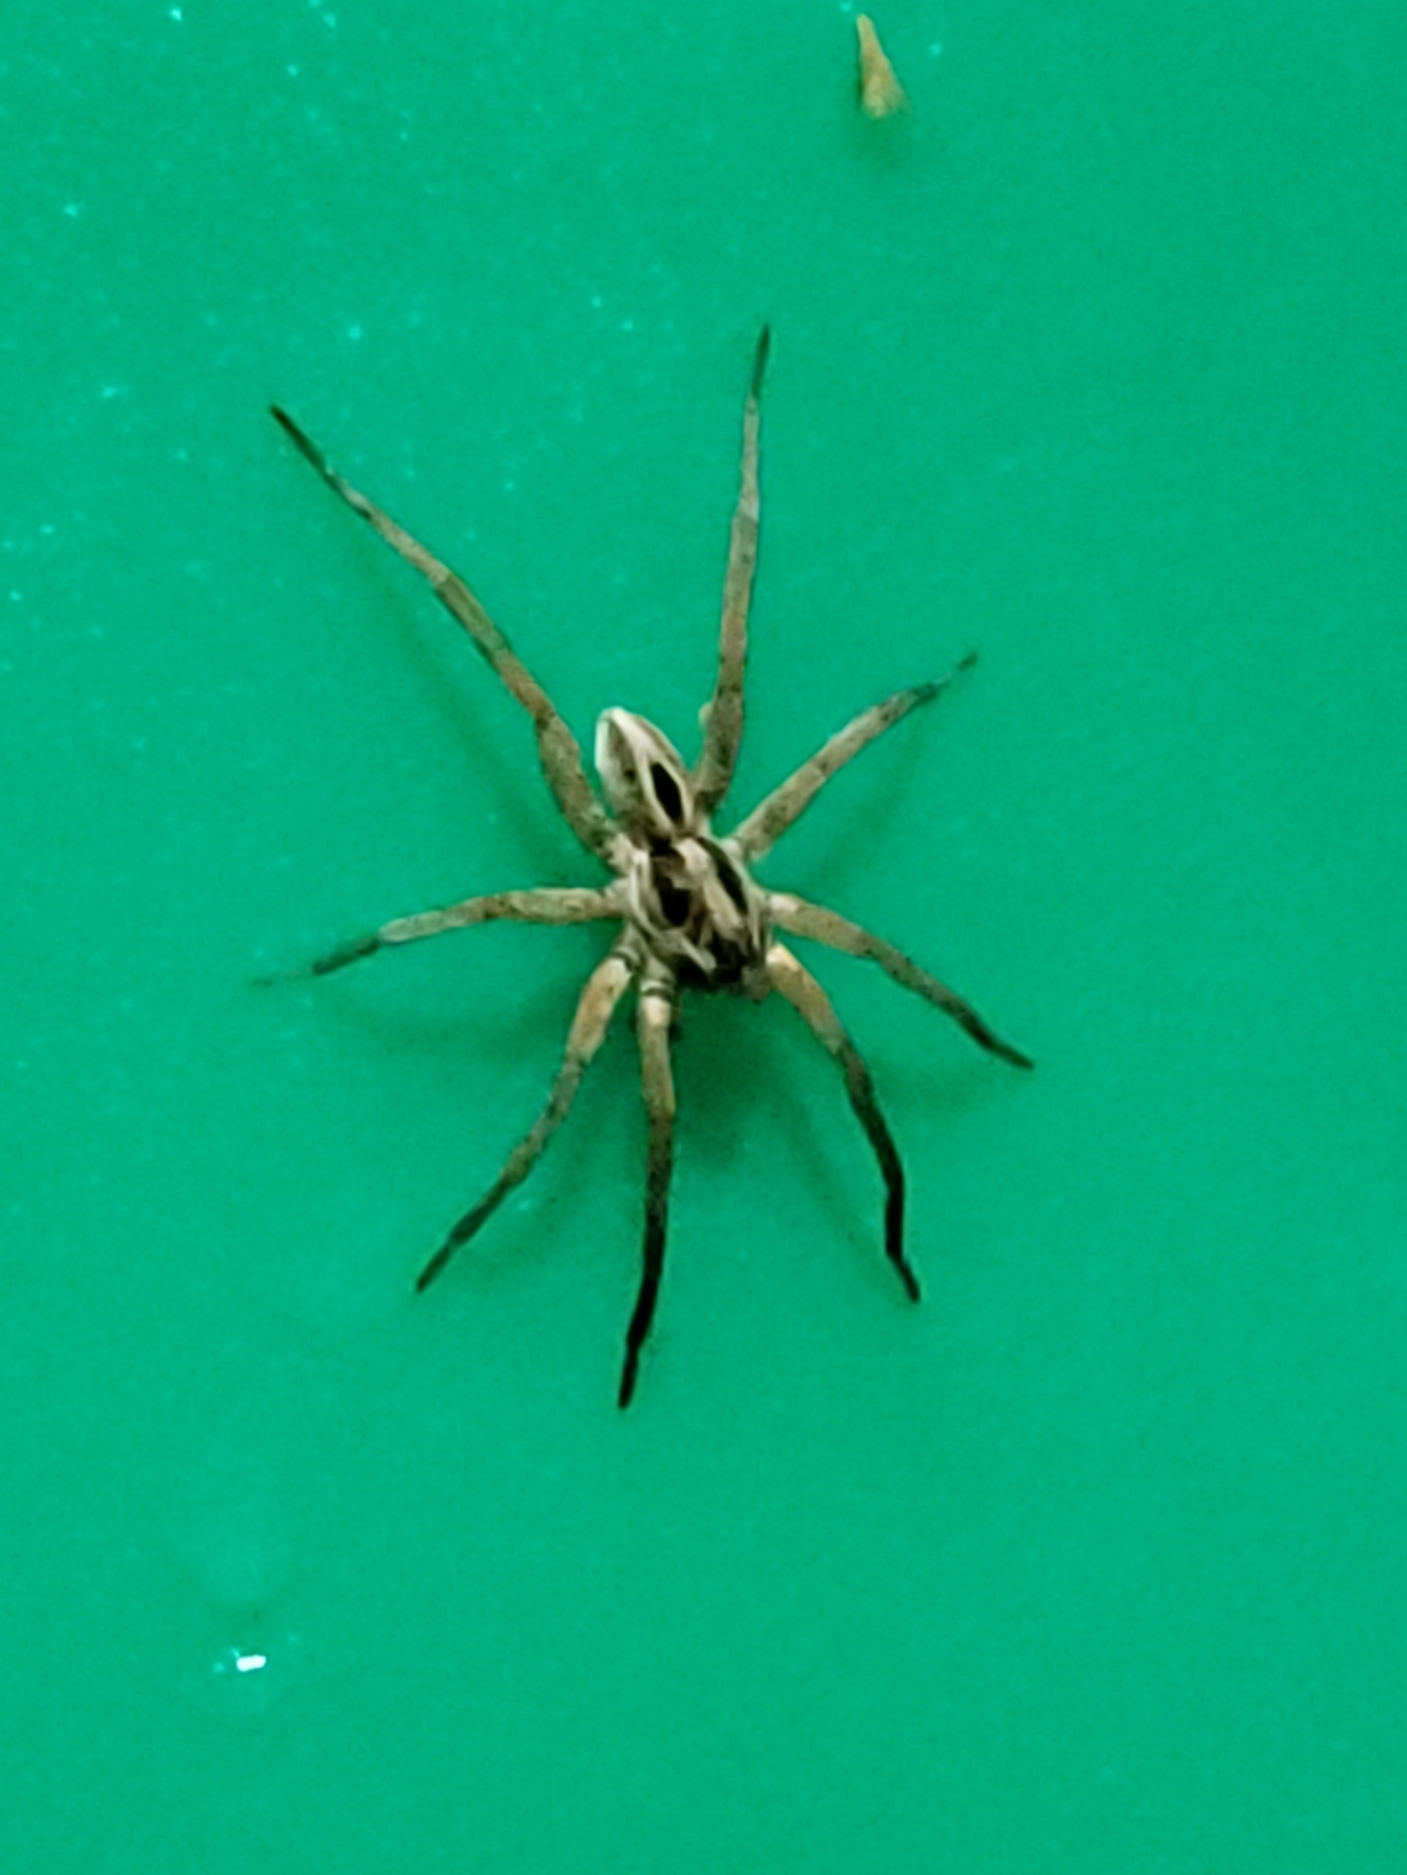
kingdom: Animalia
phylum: Arthropoda
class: Arachnida
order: Araneae
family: Lycosidae
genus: Schizocosa
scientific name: Schizocosa
